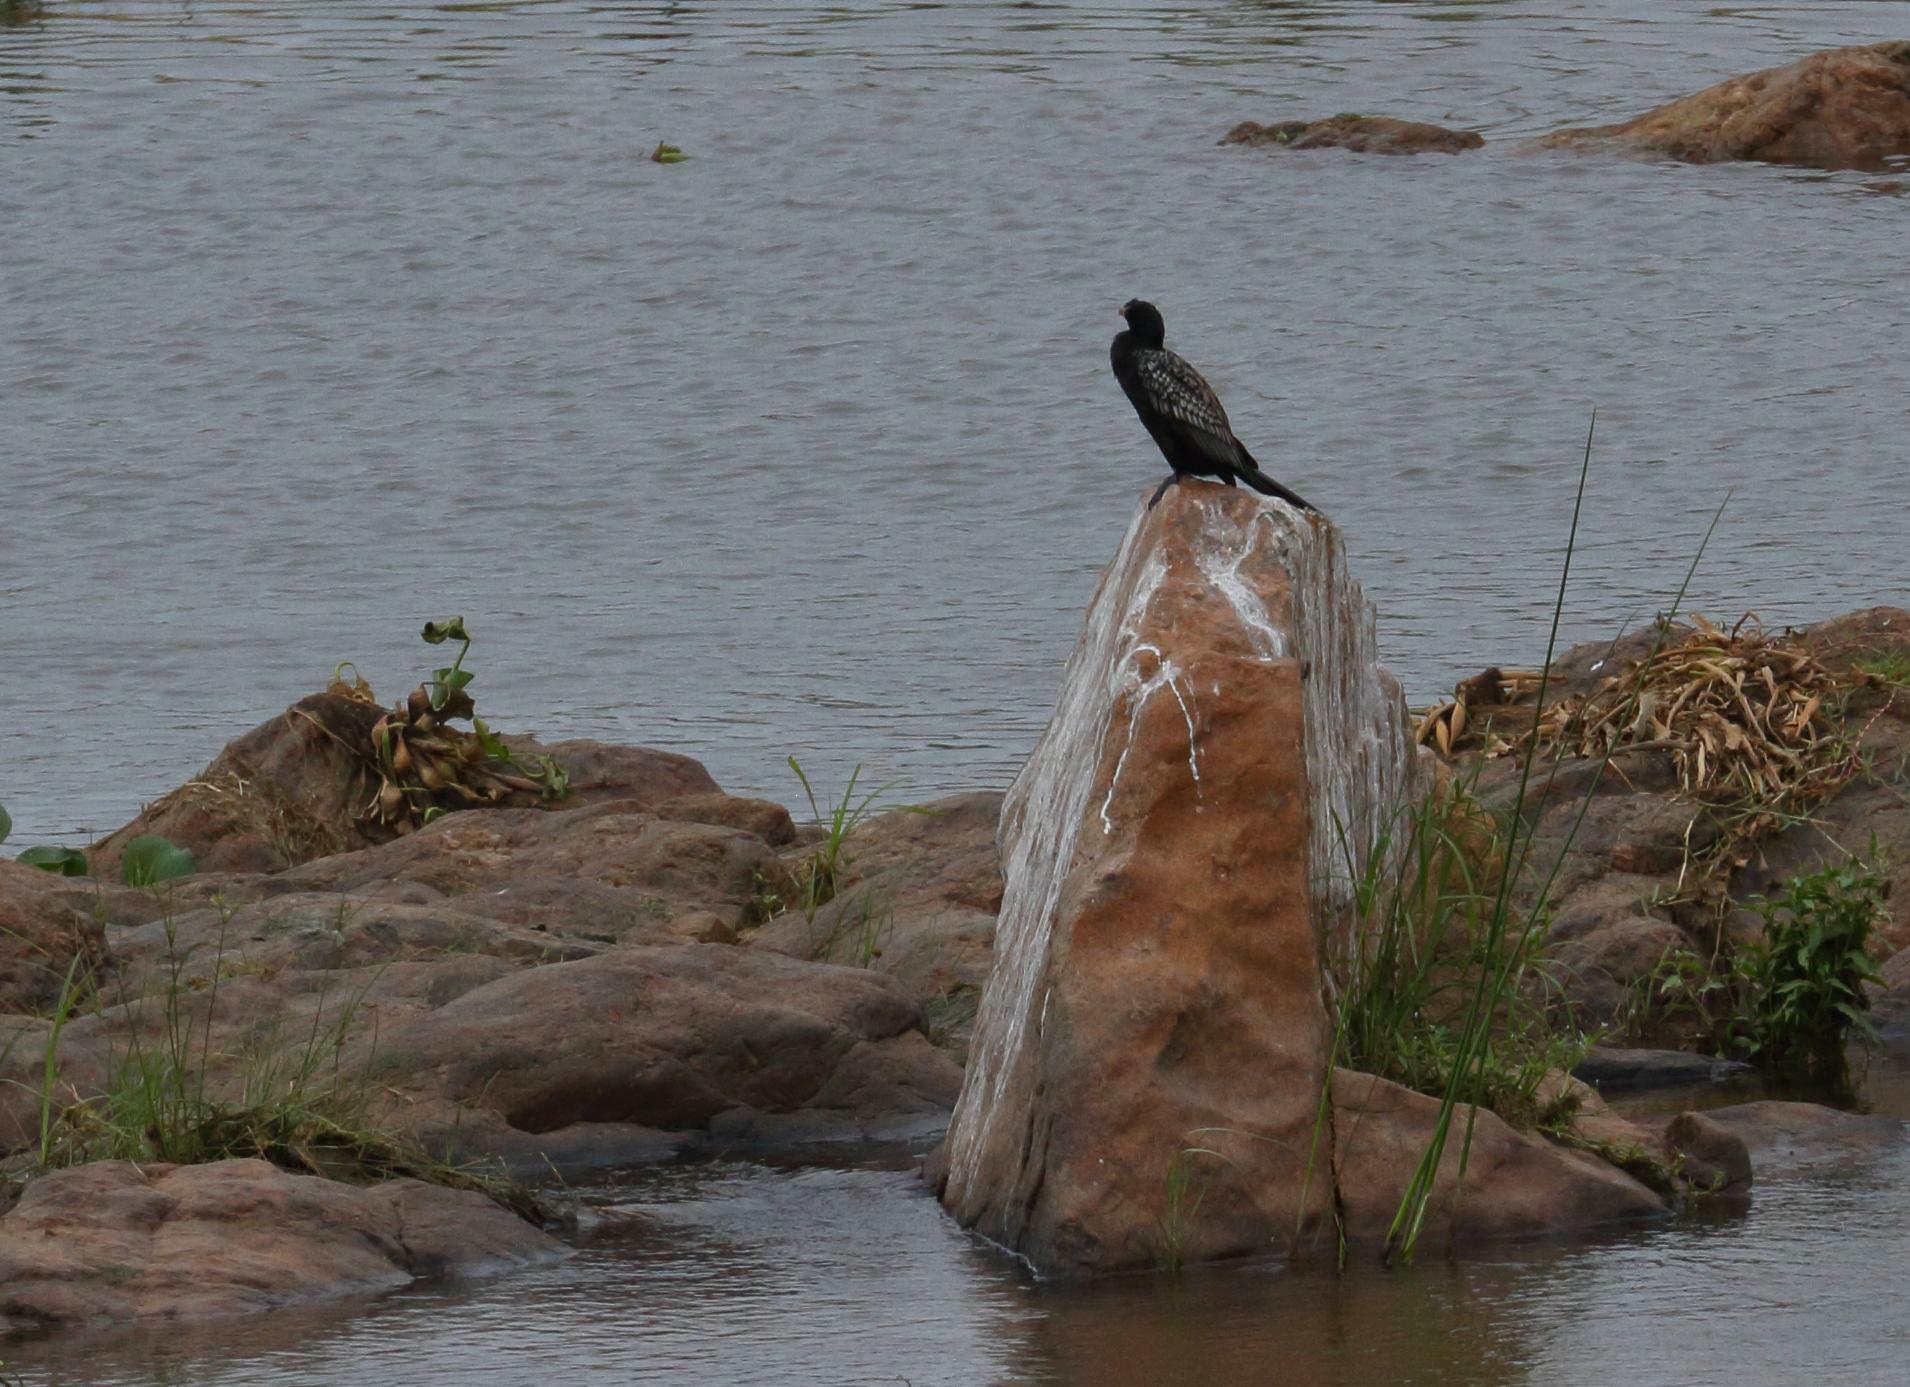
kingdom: Animalia
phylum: Chordata
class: Aves
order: Suliformes
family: Phalacrocoracidae
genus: Microcarbo
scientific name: Microcarbo africanus
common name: Long-tailed cormorant
